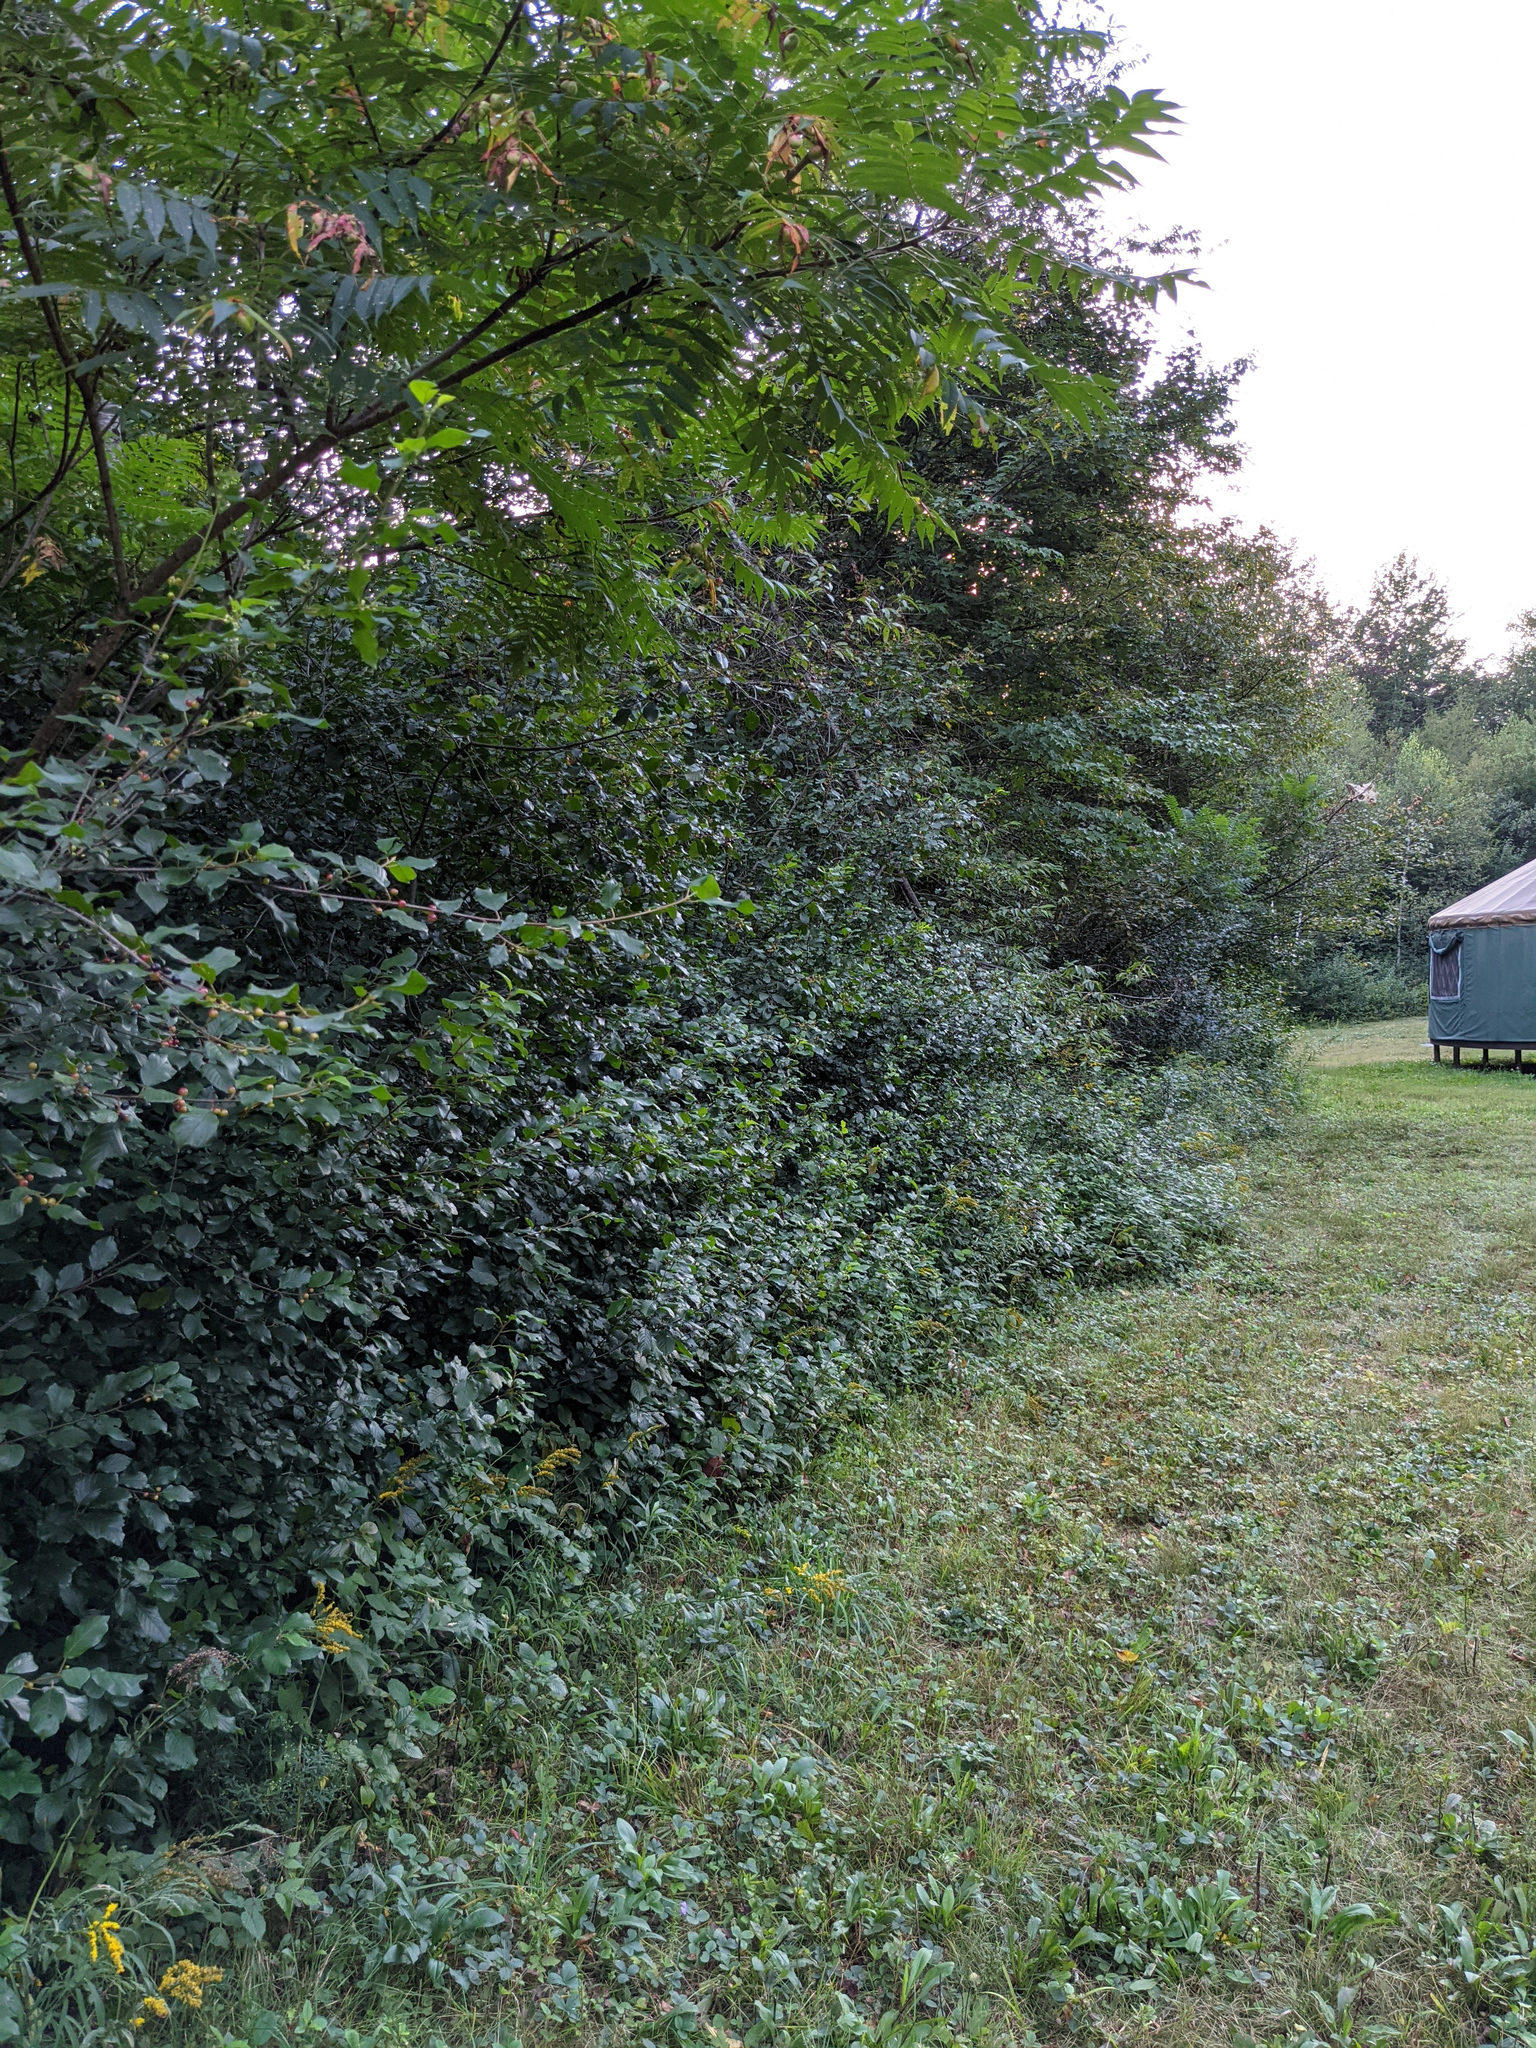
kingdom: Plantae
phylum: Tracheophyta
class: Magnoliopsida
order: Rosales
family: Rhamnaceae
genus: Frangula
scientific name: Frangula alnus
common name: Alder buckthorn
